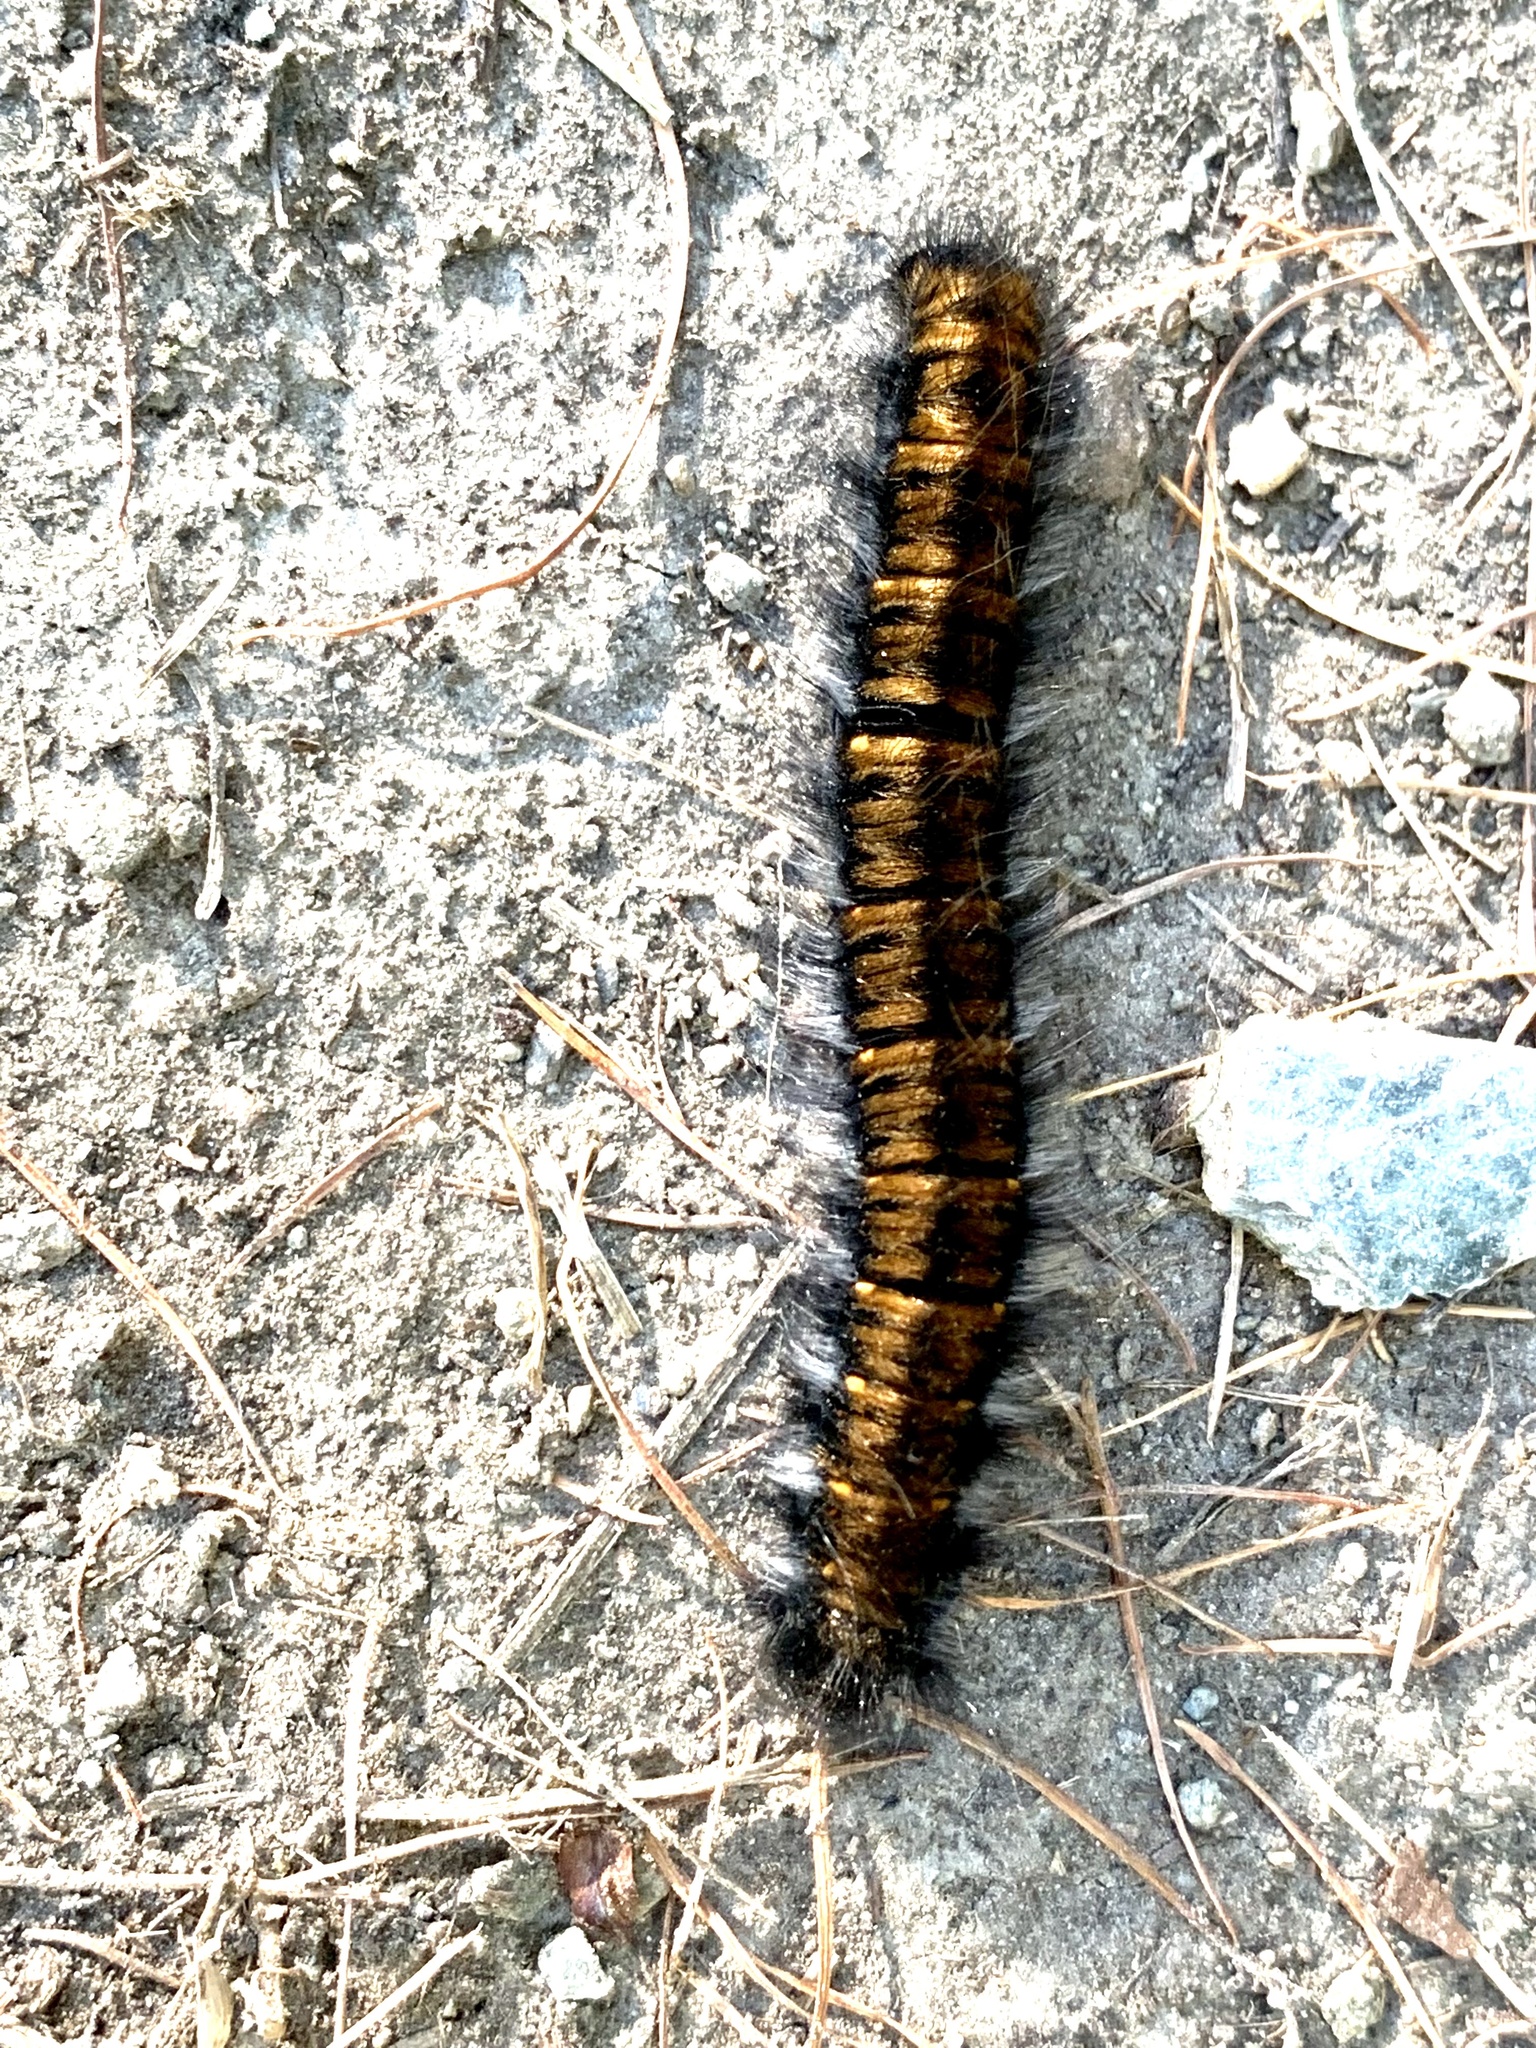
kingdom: Animalia
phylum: Arthropoda
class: Insecta
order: Lepidoptera
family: Lasiocampidae
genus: Macrothylacia
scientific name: Macrothylacia rubi
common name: Fox moth
